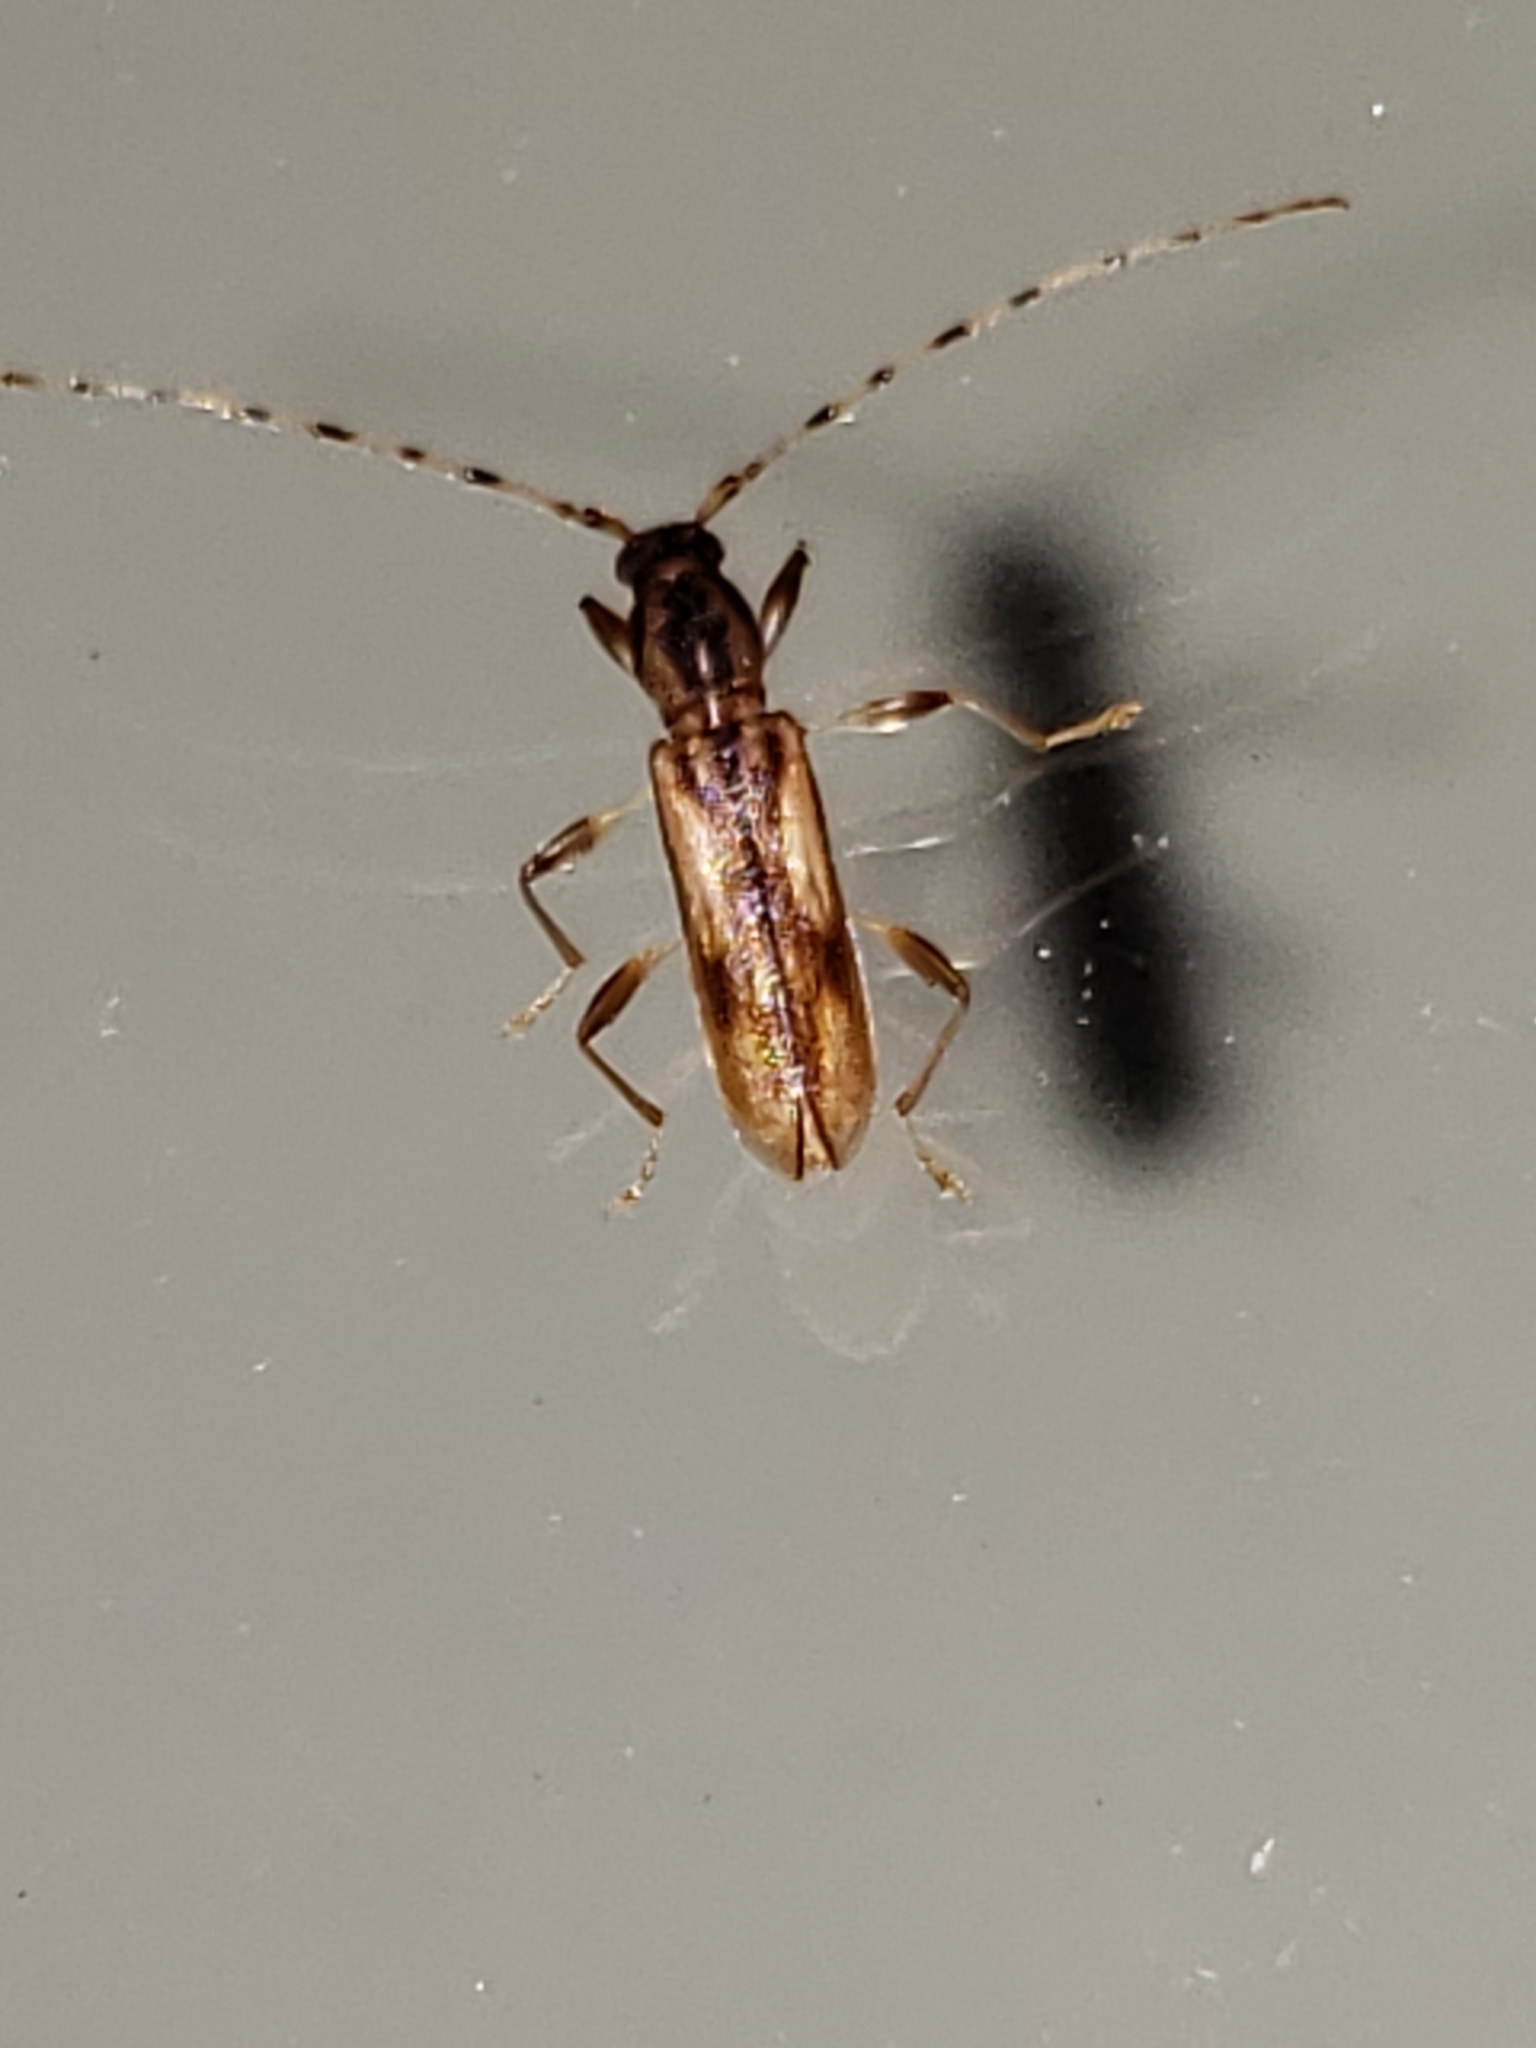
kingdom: Animalia
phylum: Arthropoda
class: Insecta
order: Coleoptera
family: Cerambycidae
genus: Curius
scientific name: Curius dentatus
